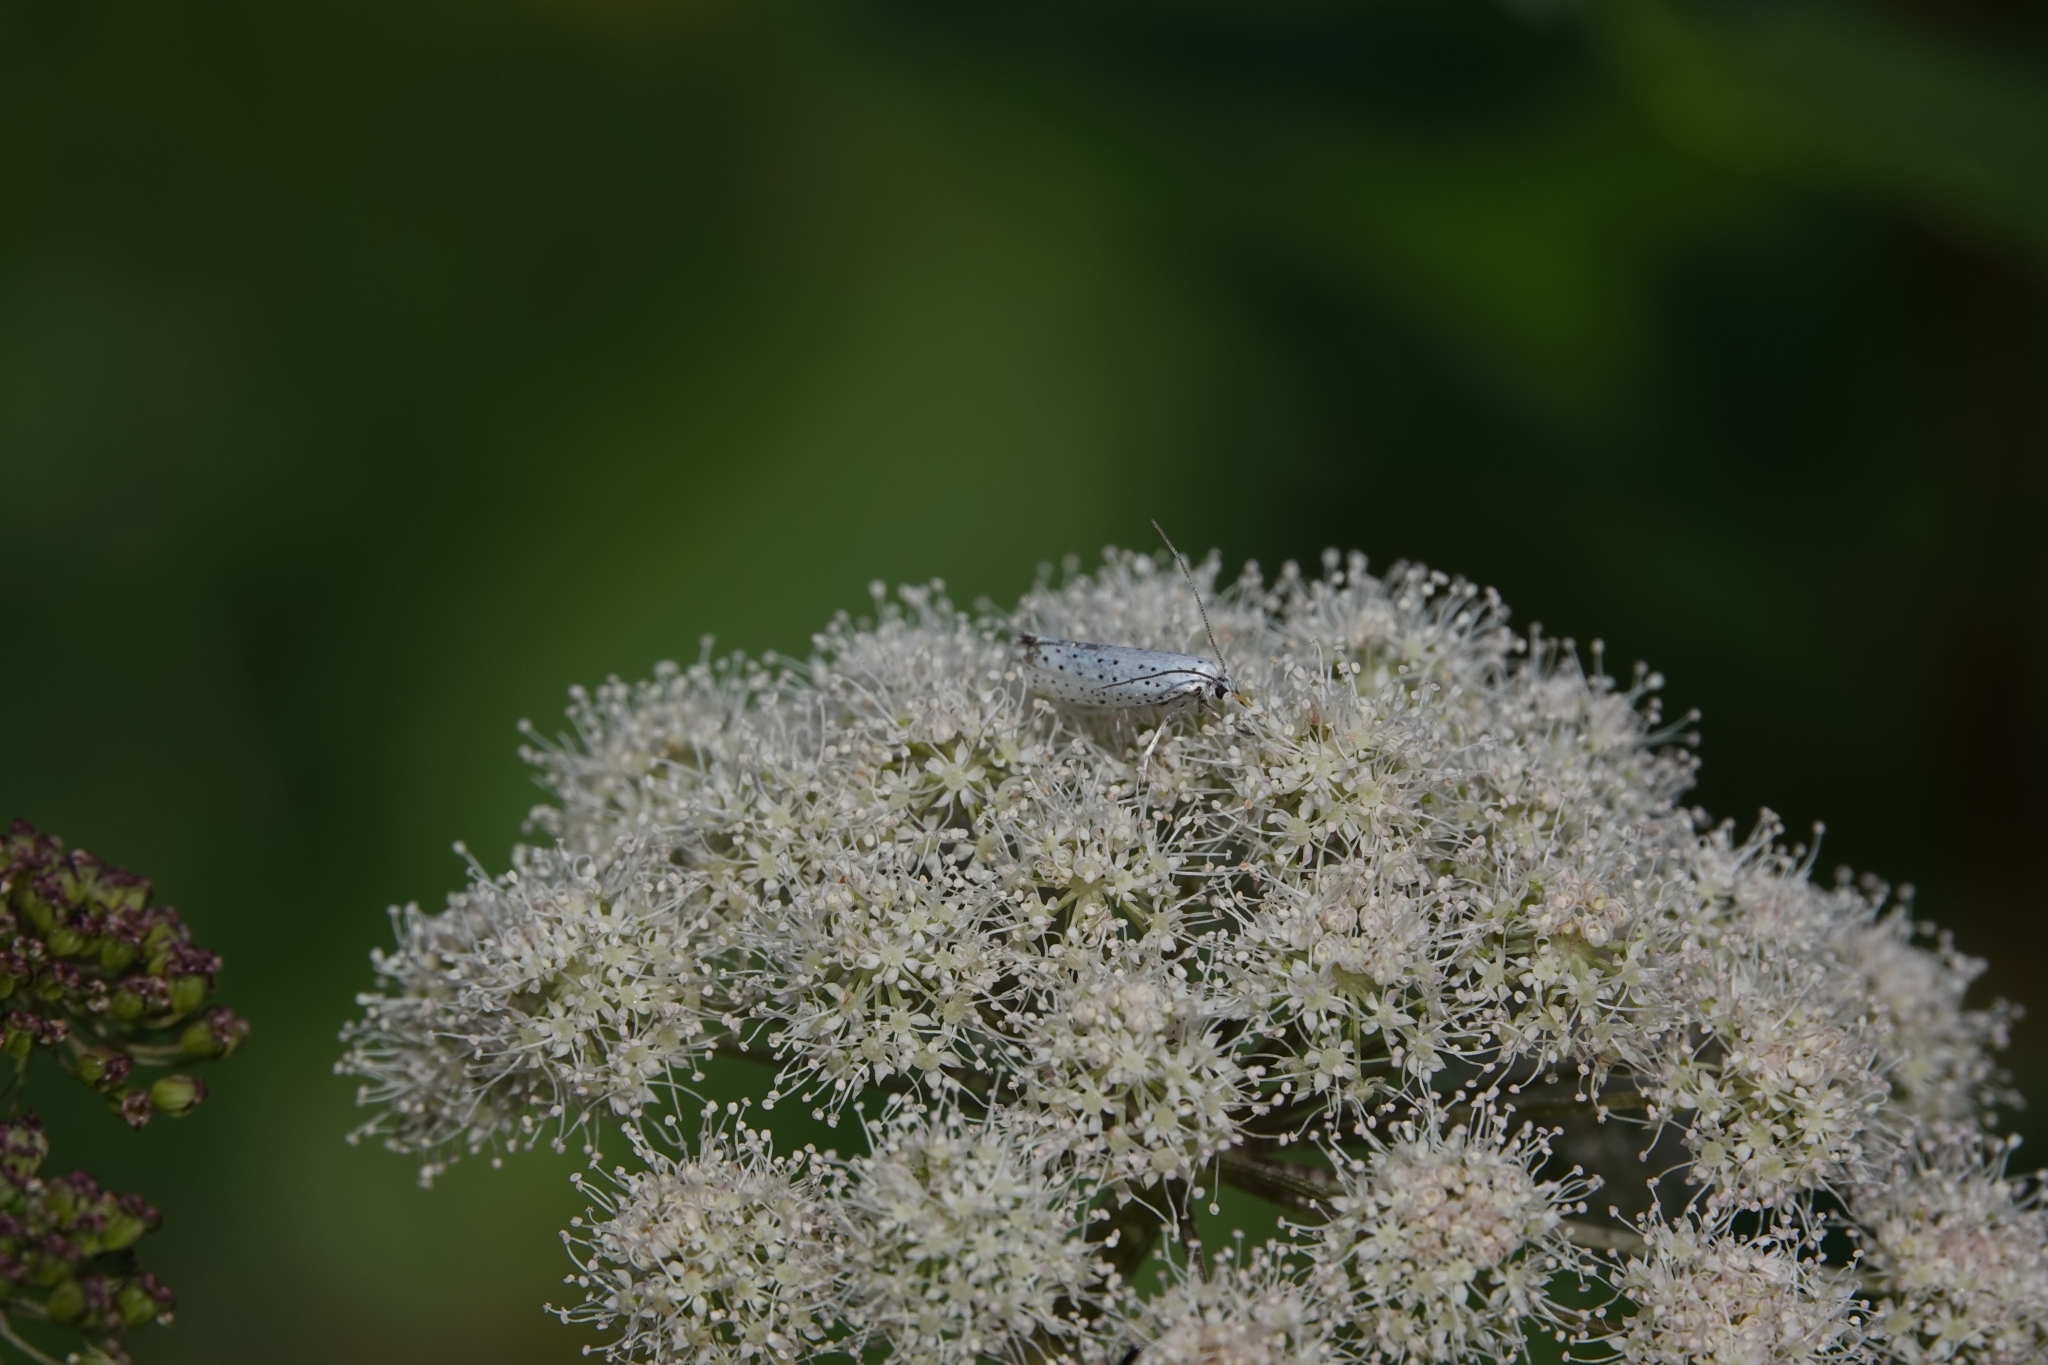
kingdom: Animalia
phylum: Arthropoda
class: Insecta
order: Lepidoptera
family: Yponomeutidae
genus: Yponomeuta
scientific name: Yponomeuta evonymella
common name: Bird-cherry ermine
